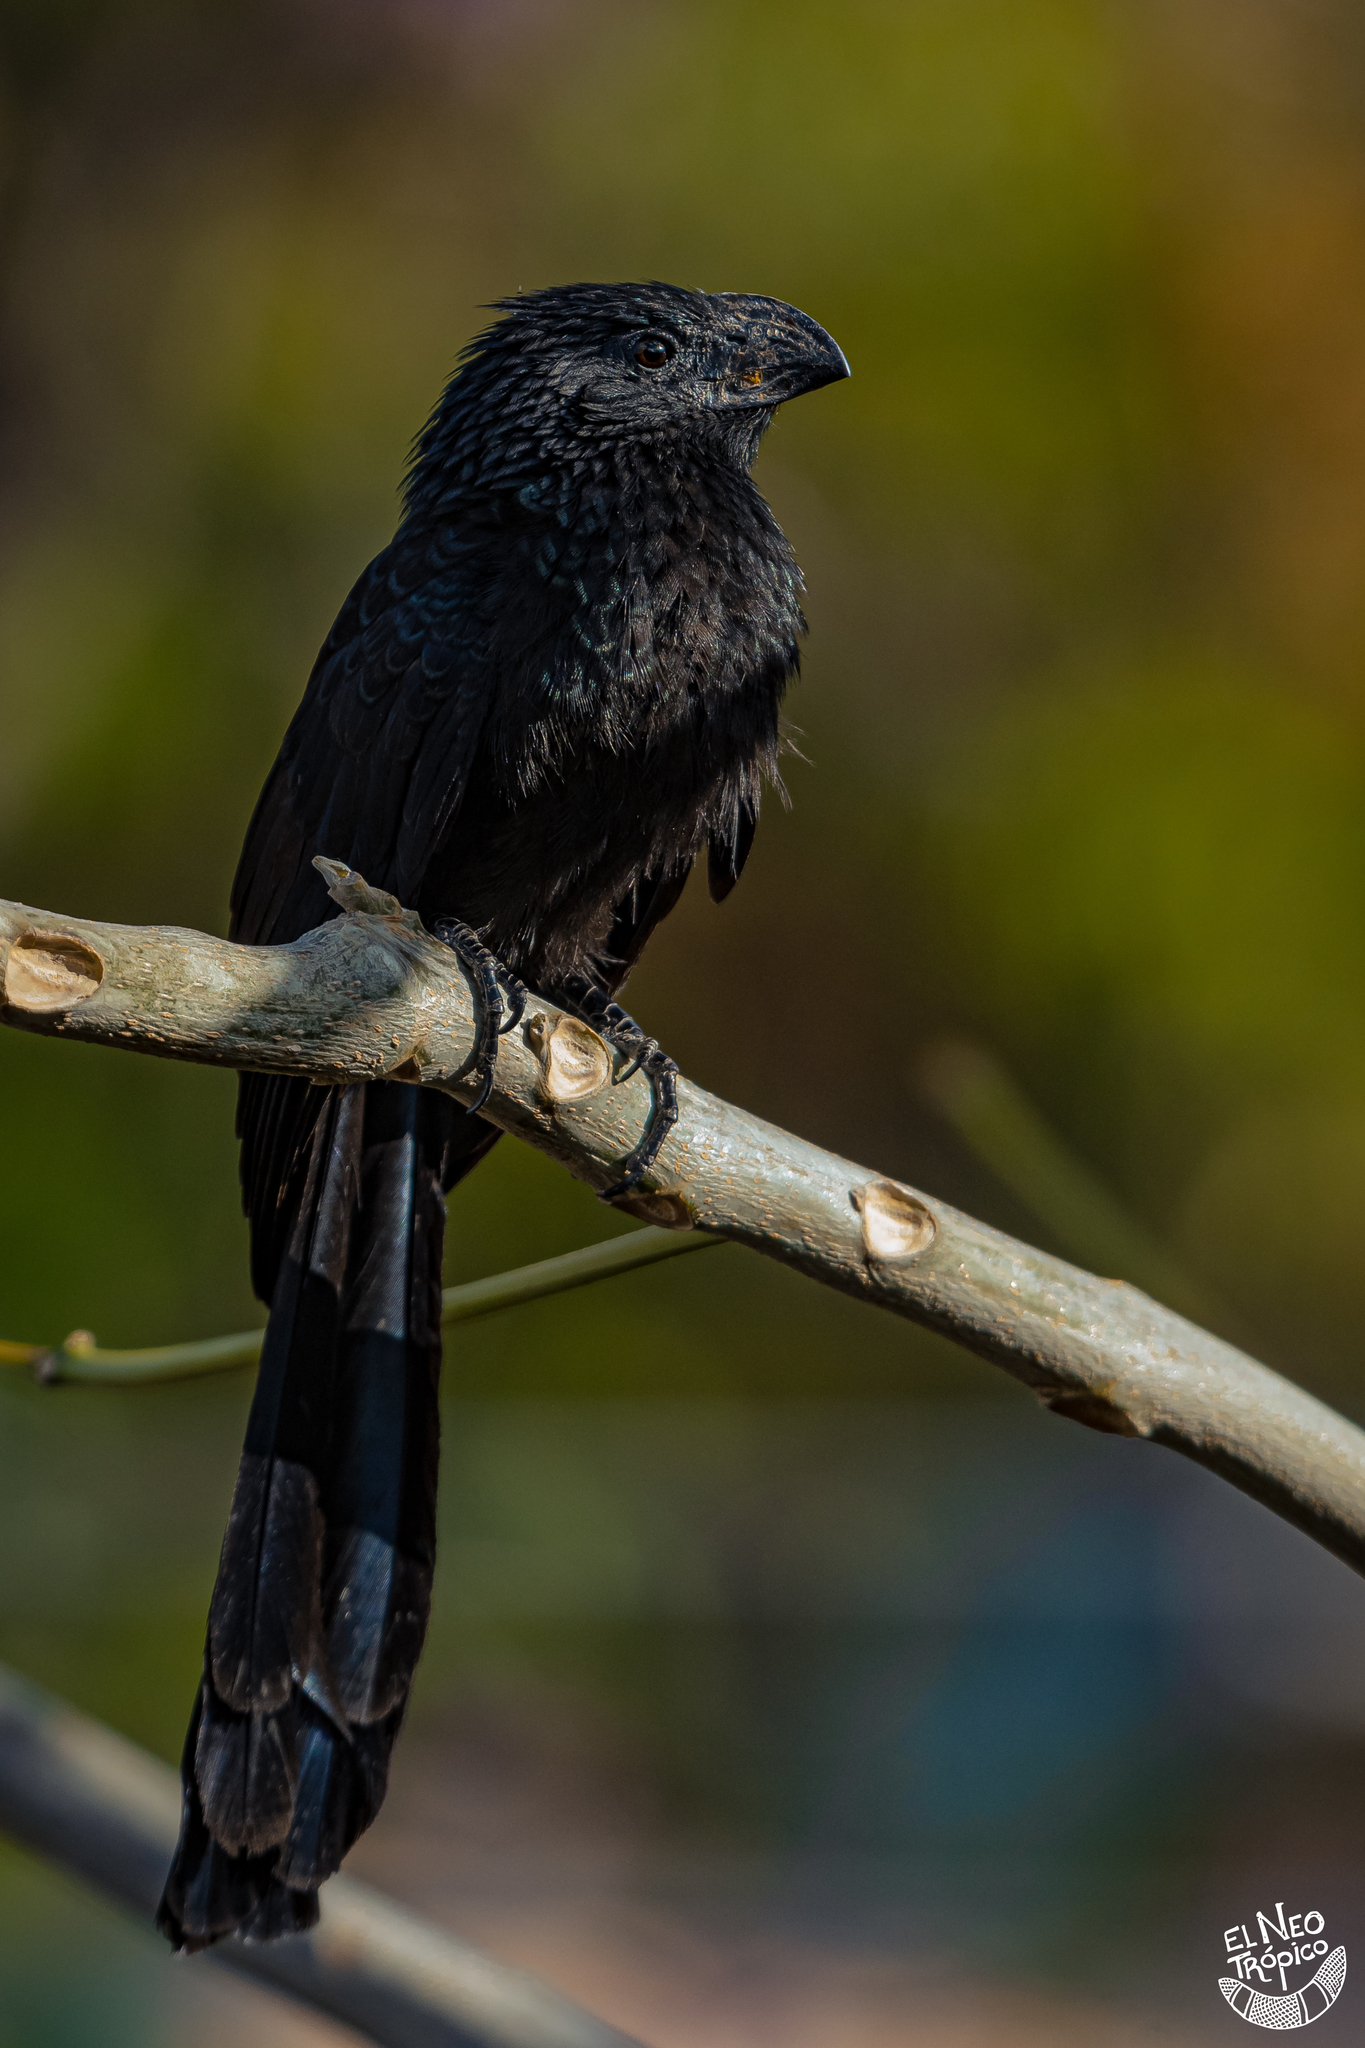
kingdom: Animalia
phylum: Chordata
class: Aves
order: Cuculiformes
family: Cuculidae
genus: Crotophaga
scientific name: Crotophaga sulcirostris
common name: Groove-billed ani
